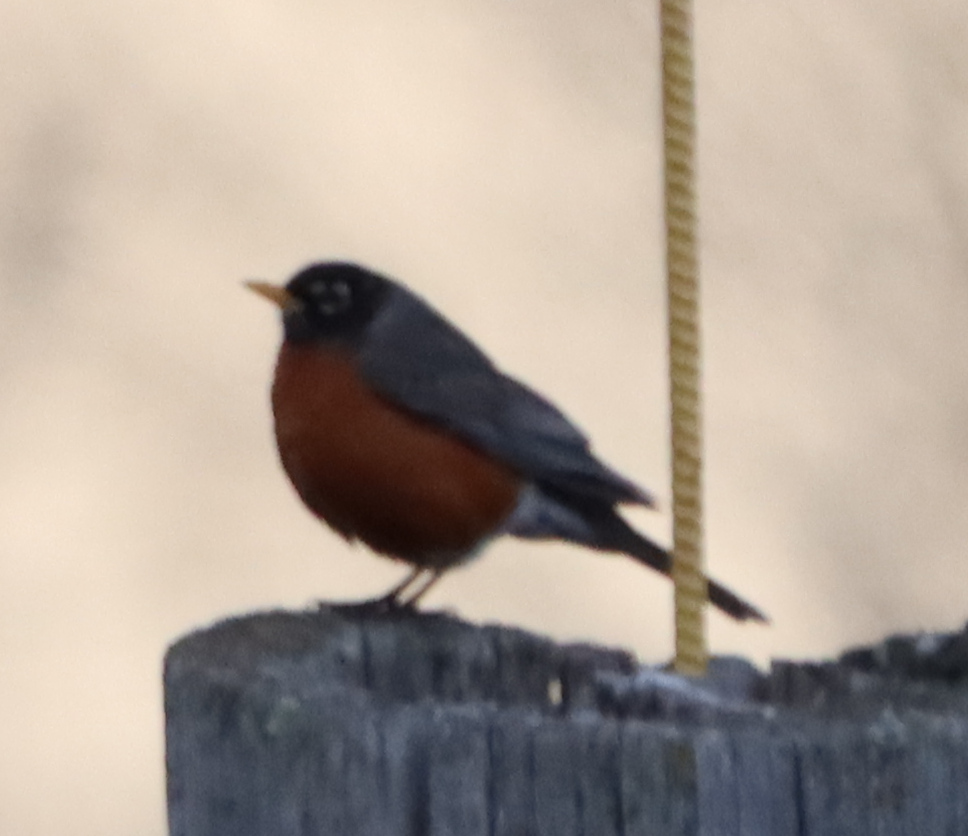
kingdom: Animalia
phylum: Chordata
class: Aves
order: Passeriformes
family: Turdidae
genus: Turdus
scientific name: Turdus migratorius
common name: American robin
